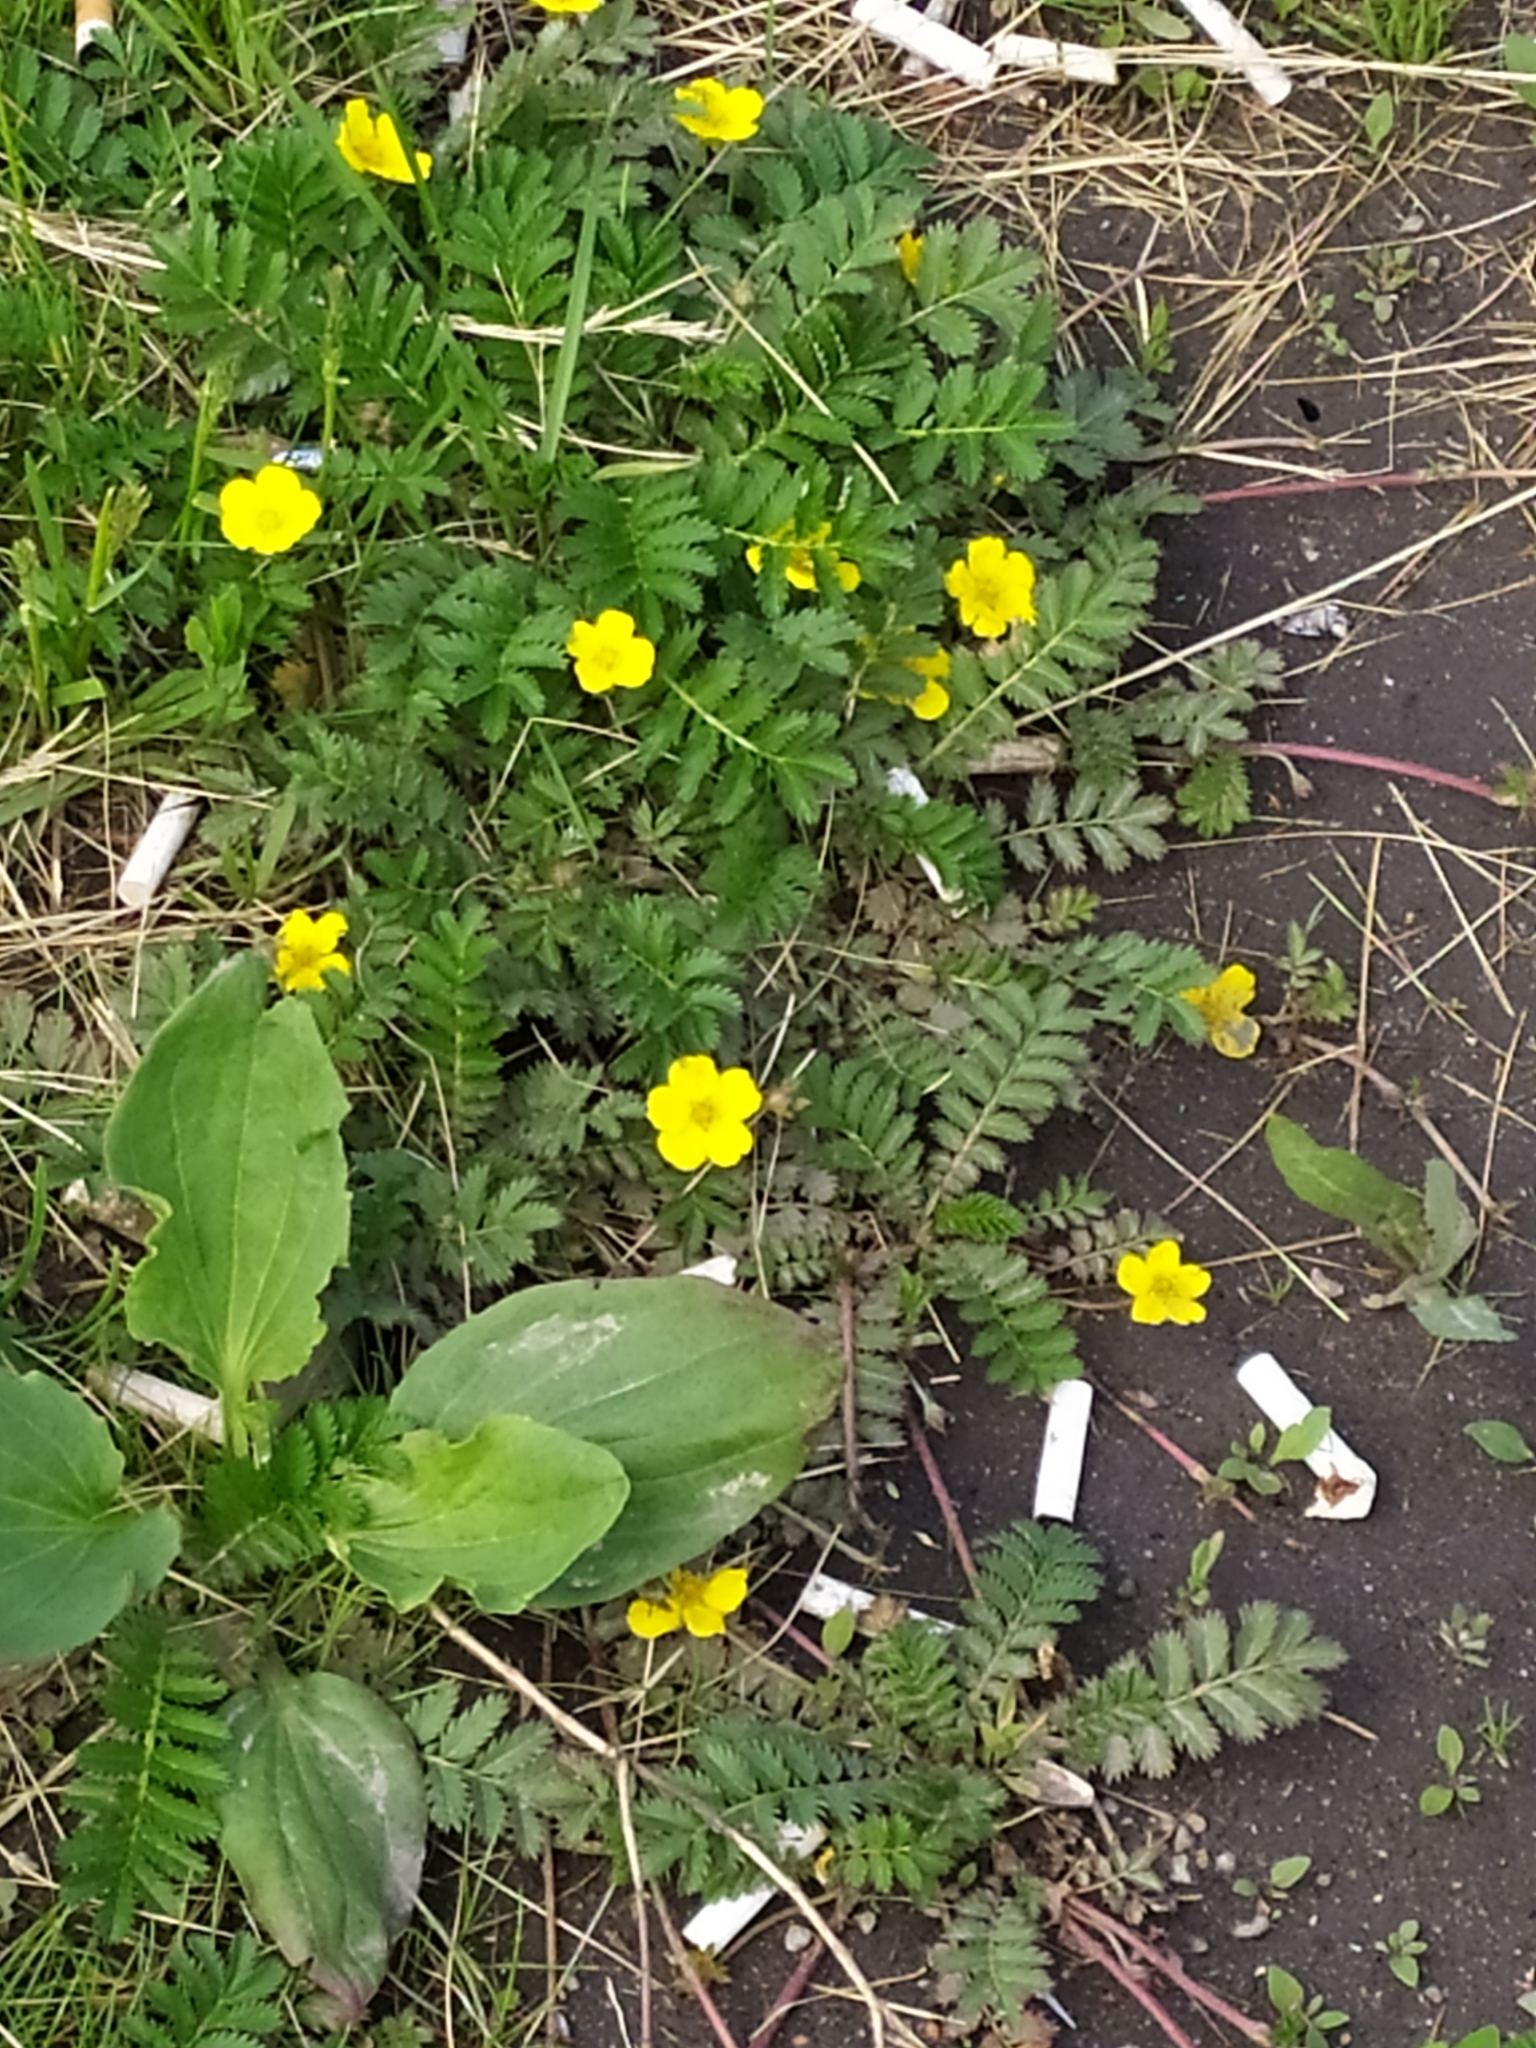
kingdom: Plantae
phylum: Tracheophyta
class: Magnoliopsida
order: Rosales
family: Rosaceae
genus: Argentina
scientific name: Argentina anserina
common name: Common silverweed
